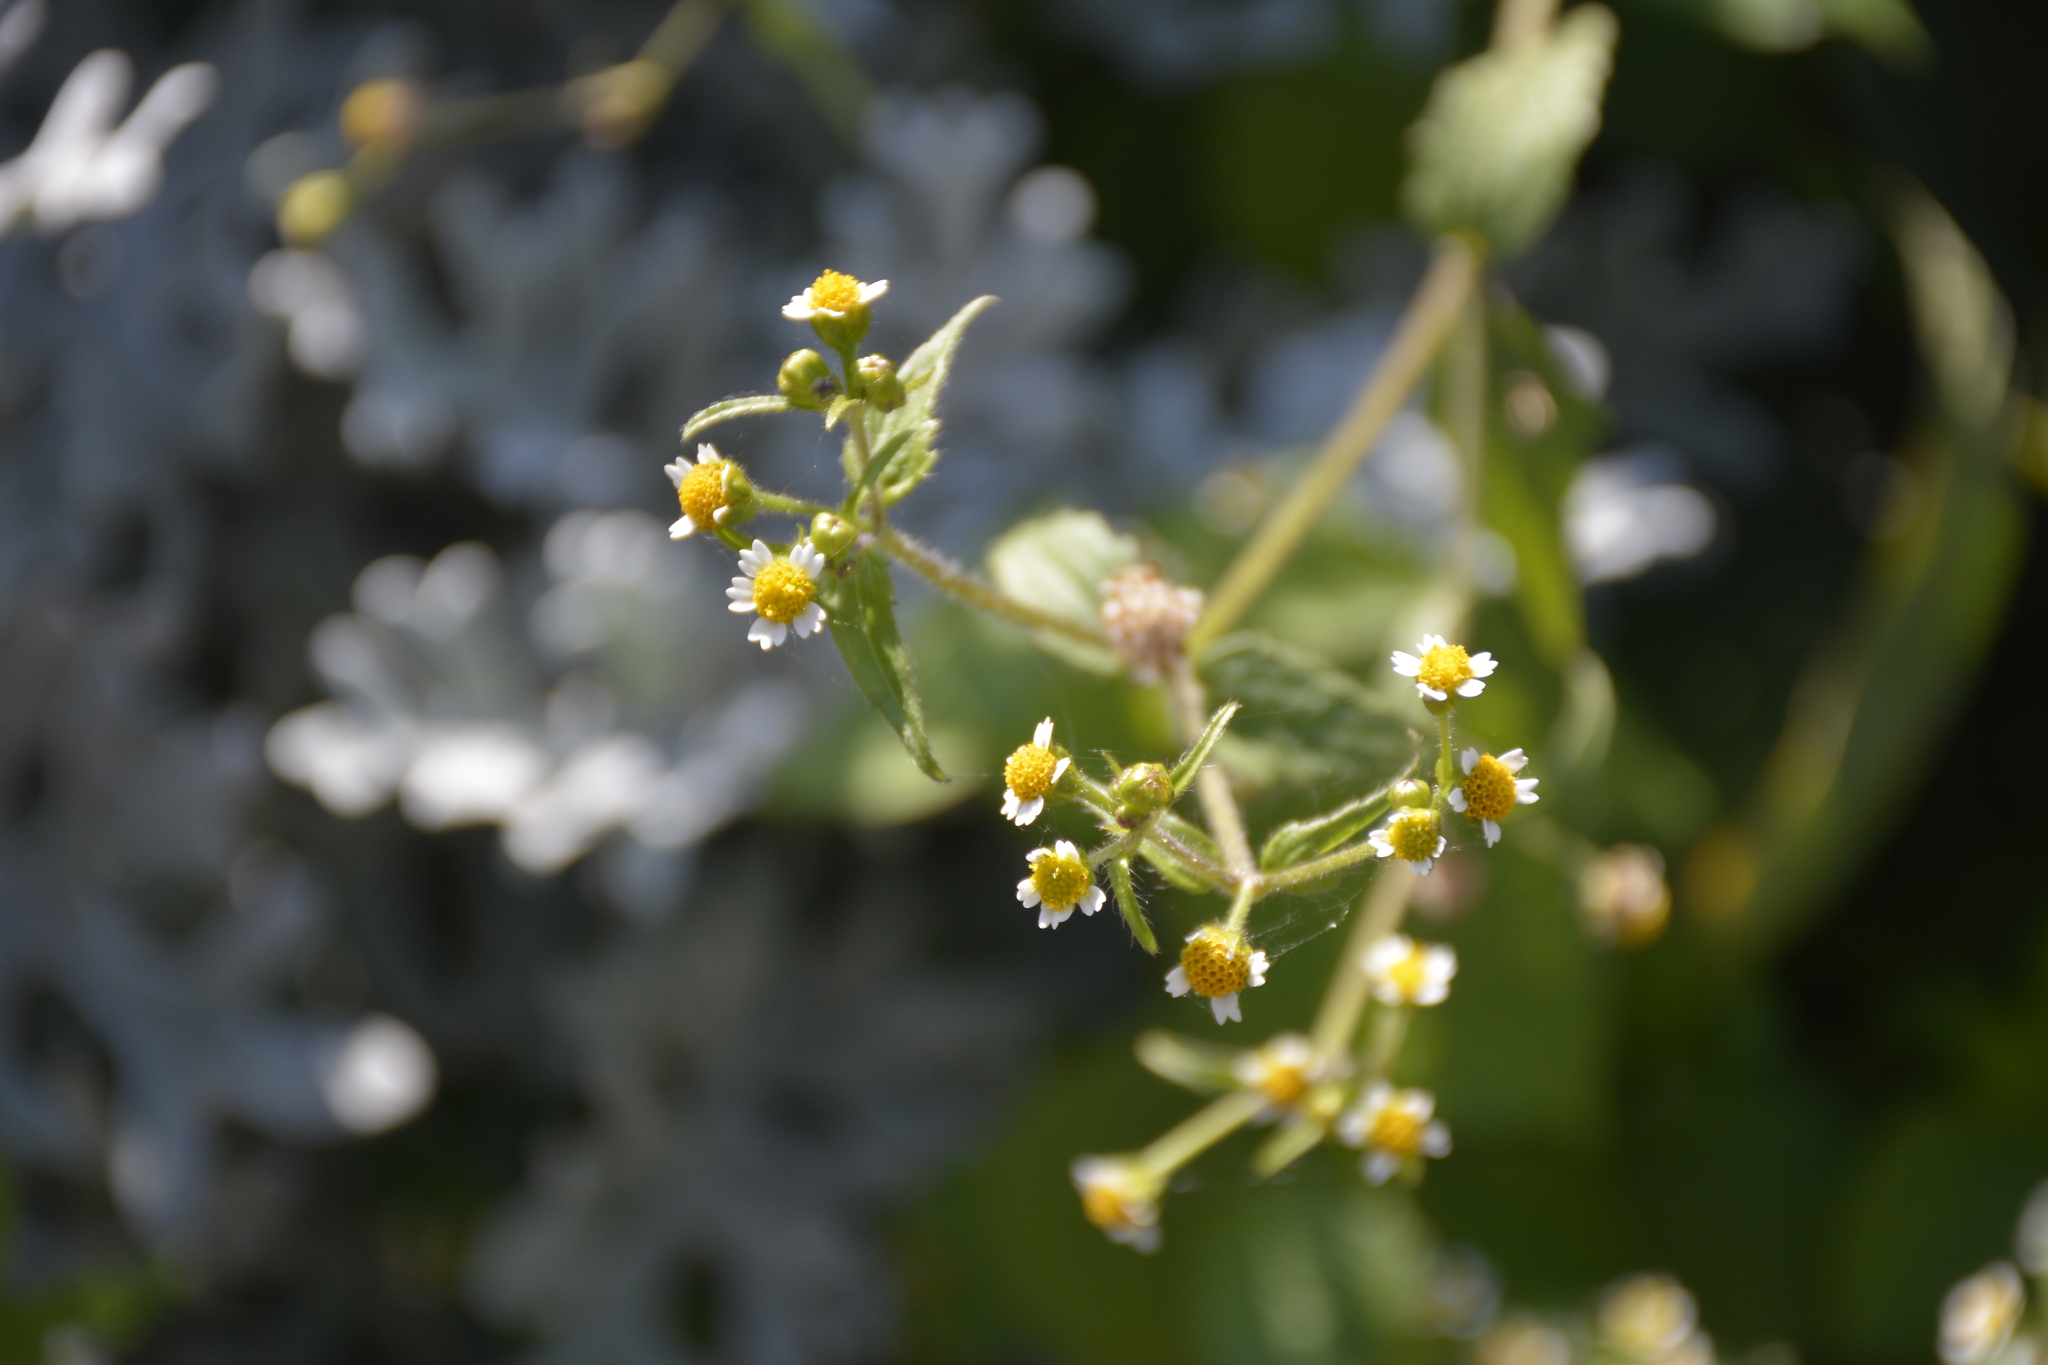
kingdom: Plantae
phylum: Tracheophyta
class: Magnoliopsida
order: Asterales
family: Asteraceae
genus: Galinsoga
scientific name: Galinsoga quadriradiata
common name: Shaggy soldier
